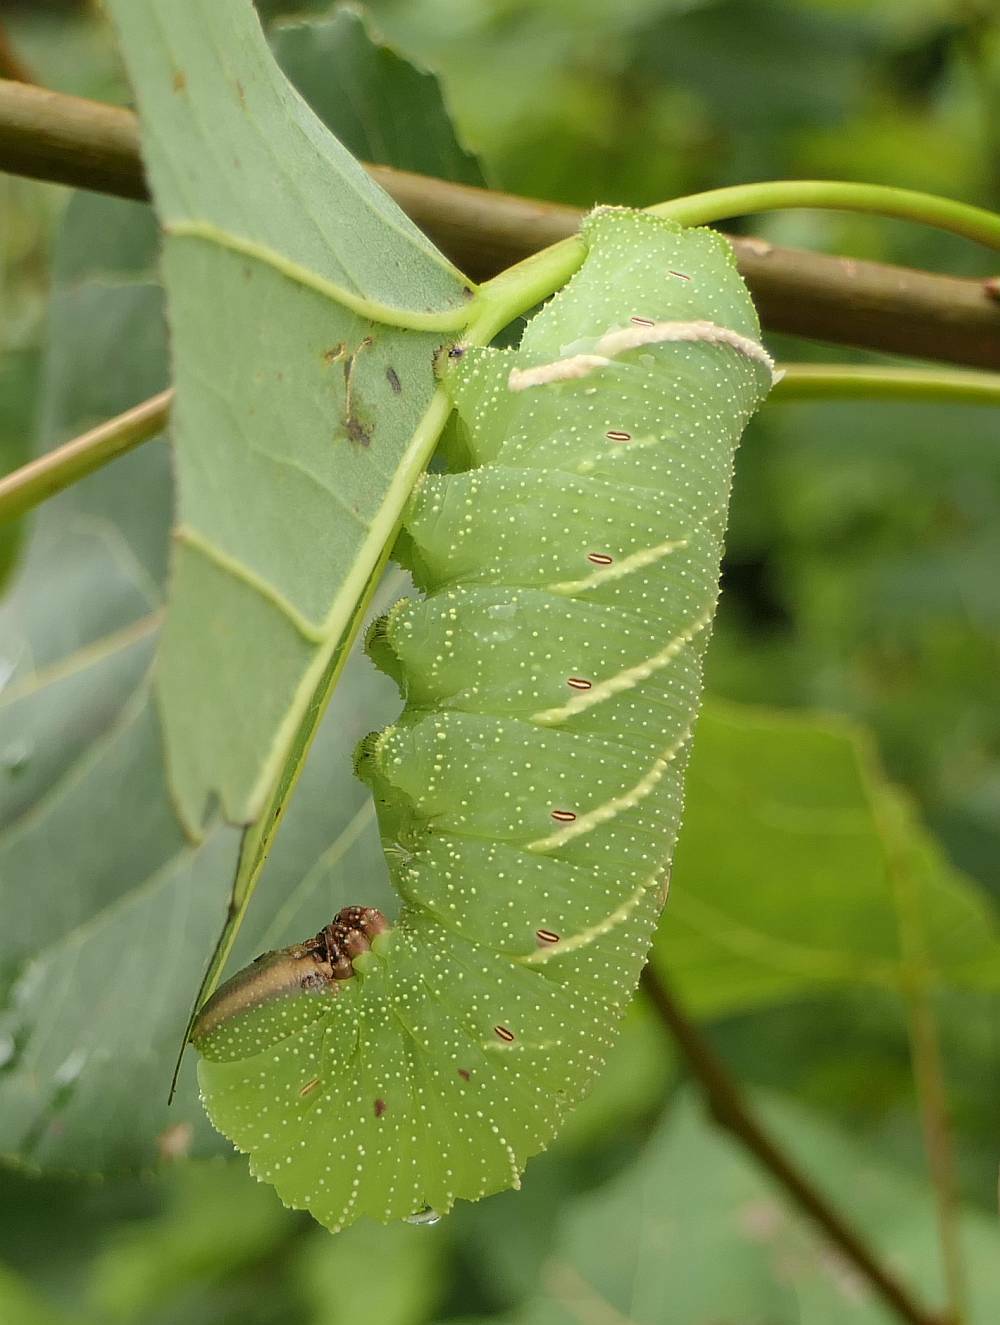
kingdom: Animalia
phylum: Arthropoda
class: Insecta
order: Lepidoptera
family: Sphingidae
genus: Pachysphinx
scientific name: Pachysphinx modesta
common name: Big poplar sphinx
